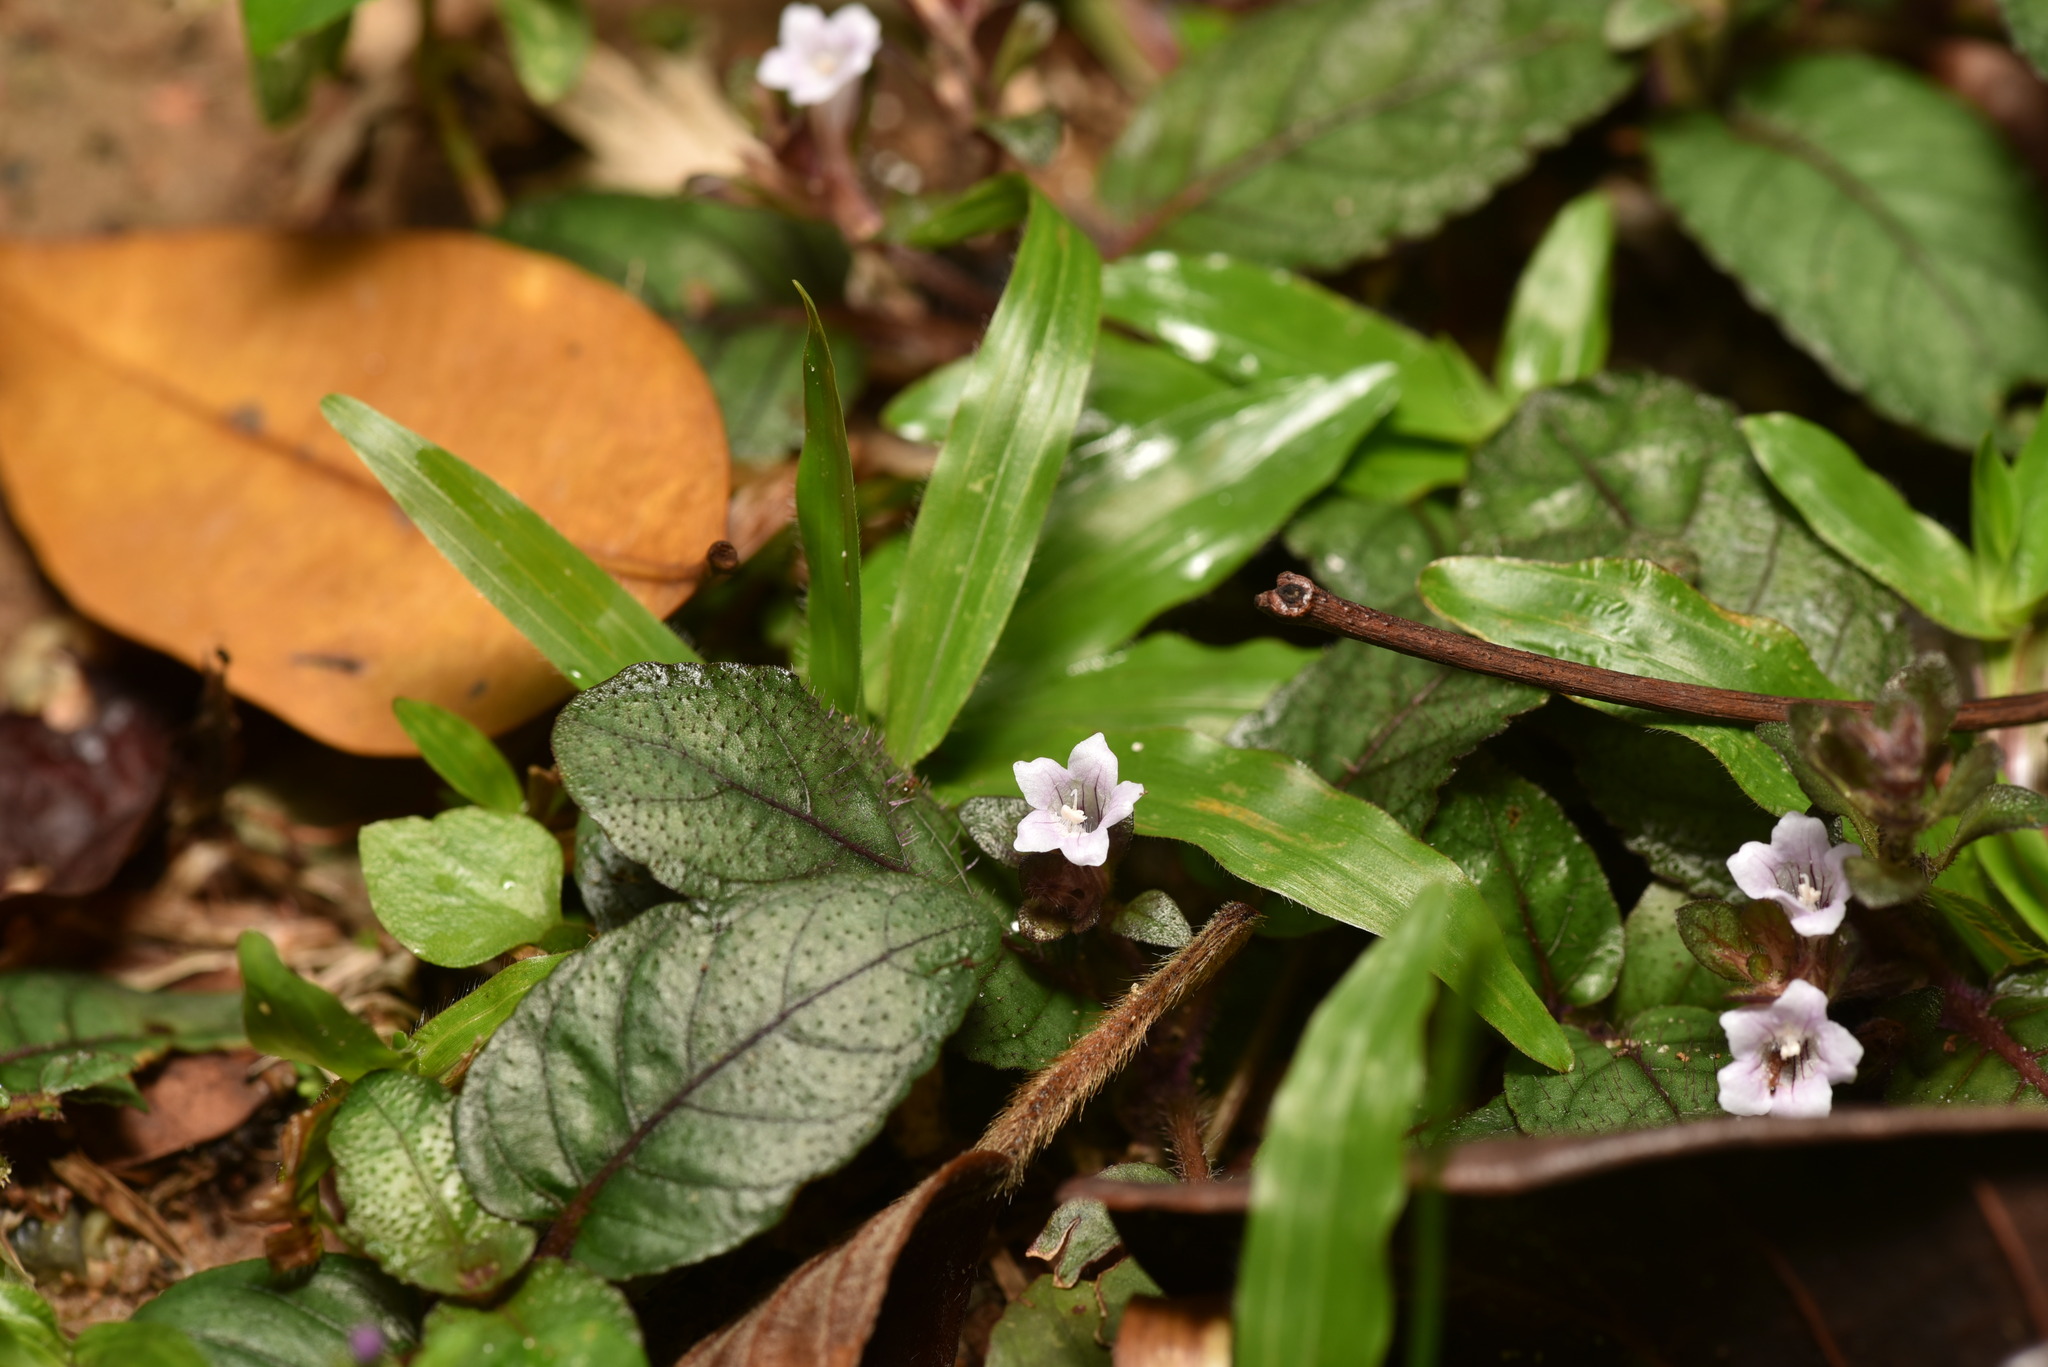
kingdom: Plantae
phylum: Tracheophyta
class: Magnoliopsida
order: Lamiales
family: Acanthaceae
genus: Strobilanthes
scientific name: Strobilanthes reptans
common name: Acanthaceae
